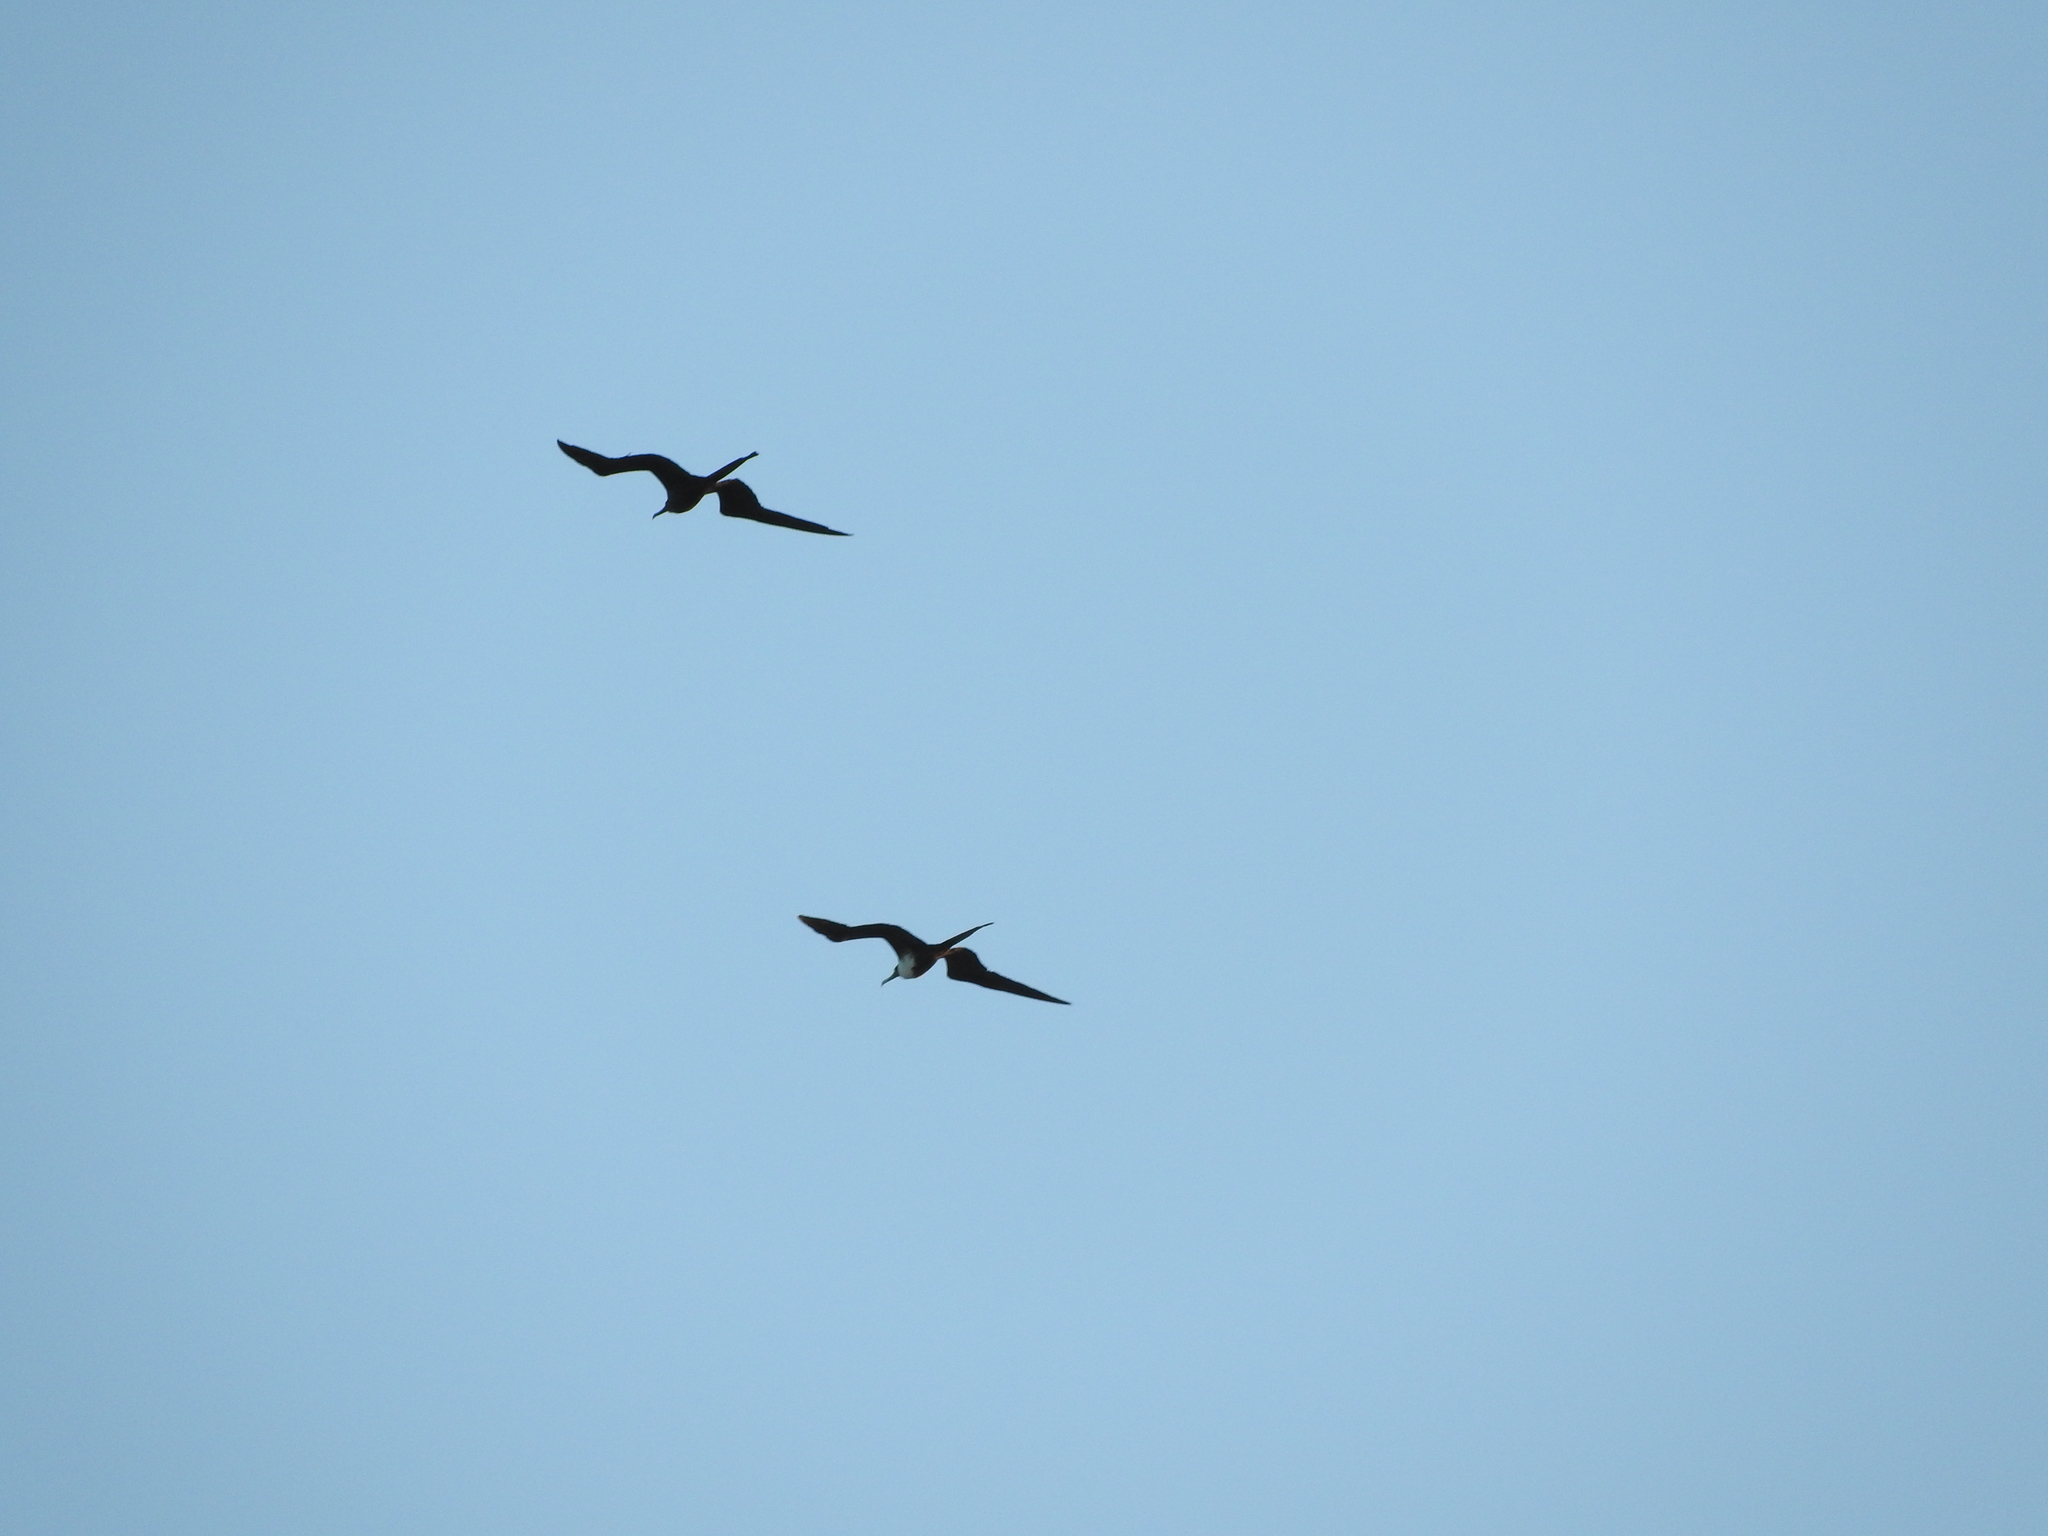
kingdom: Animalia
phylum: Chordata
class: Aves
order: Suliformes
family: Fregatidae
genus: Fregata
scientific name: Fregata magnificens
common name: Magnificent frigatebird
